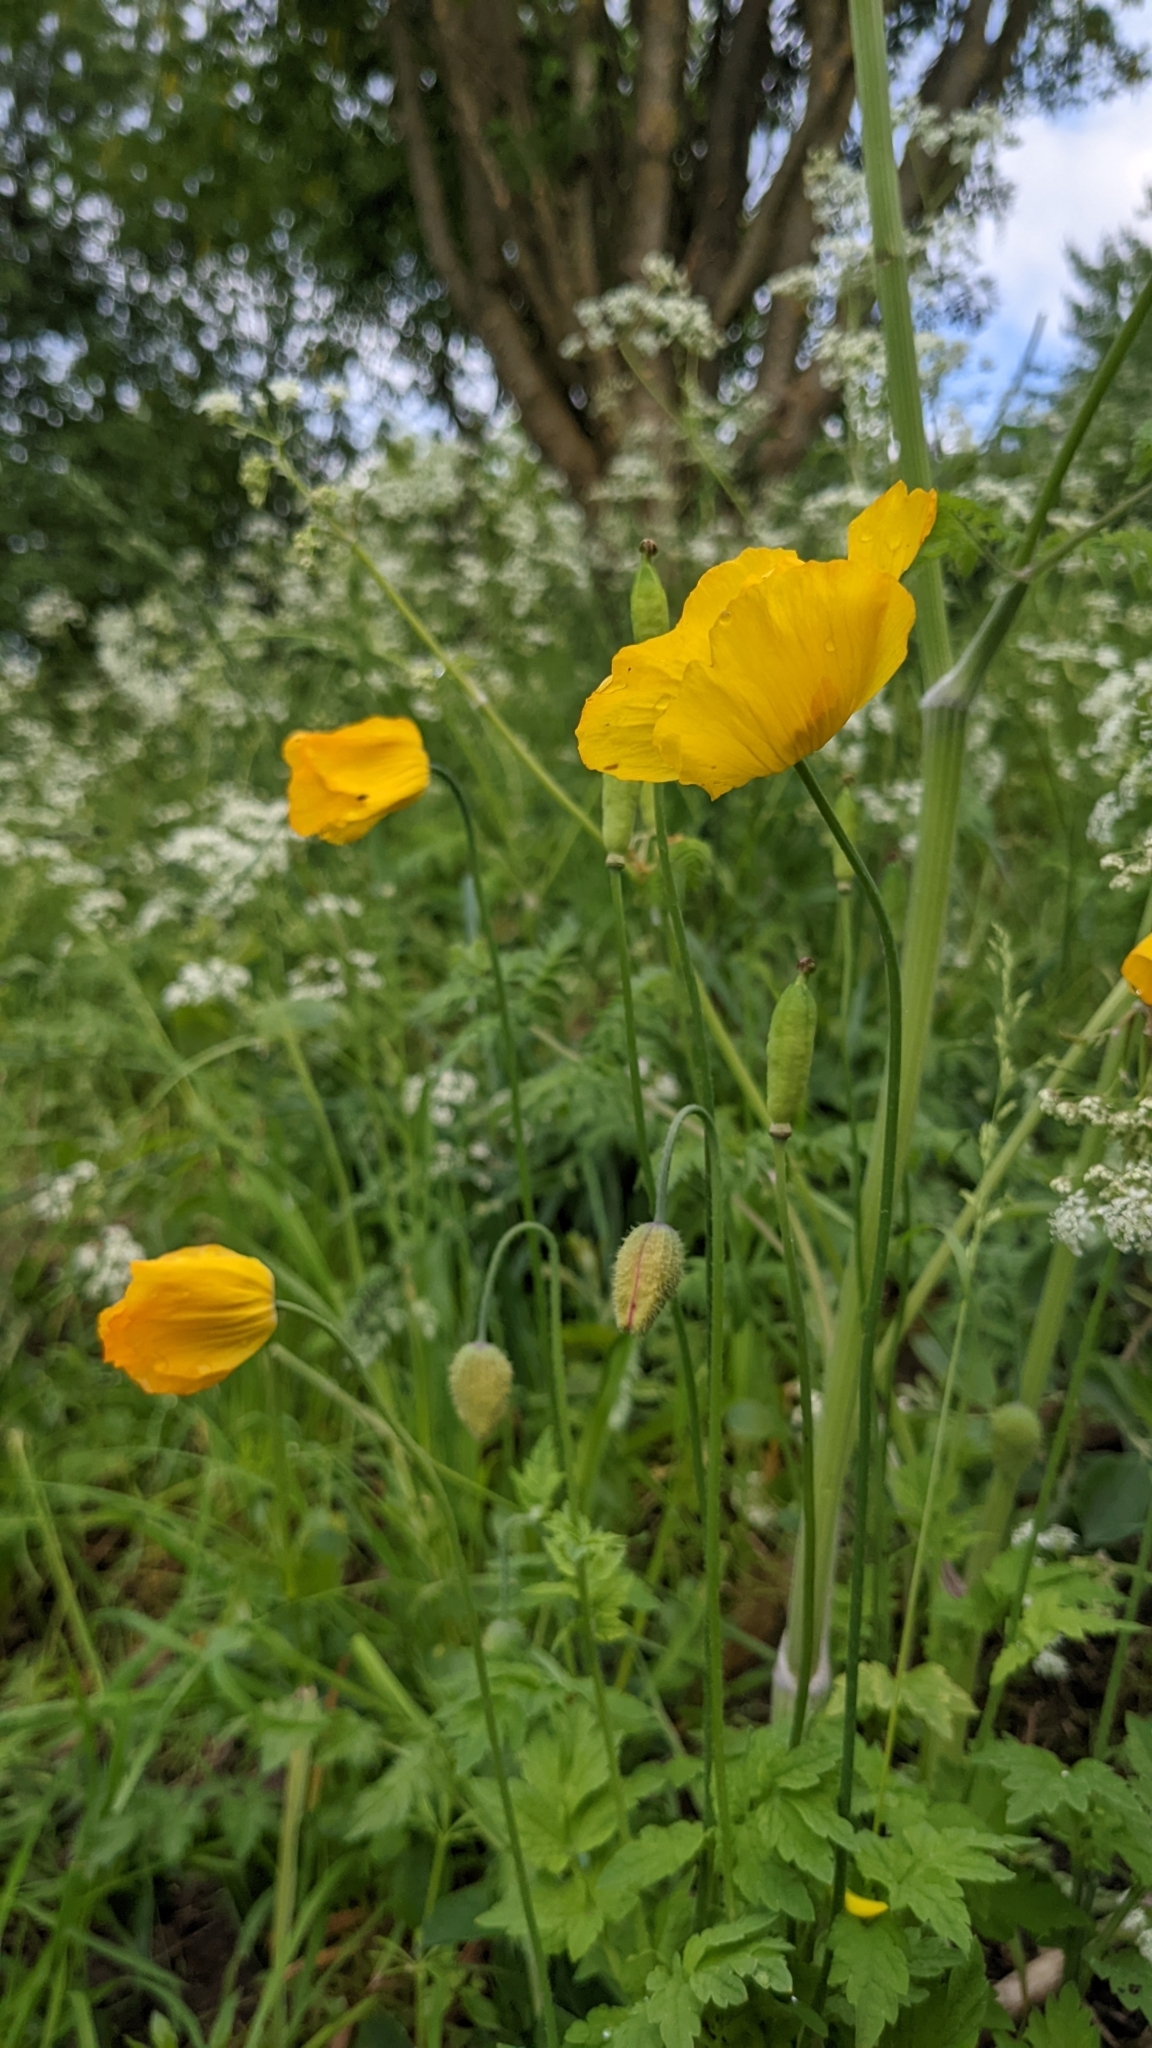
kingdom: Plantae
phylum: Tracheophyta
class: Magnoliopsida
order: Ranunculales
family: Papaveraceae
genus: Papaver
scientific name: Papaver cambricum
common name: Poppy
